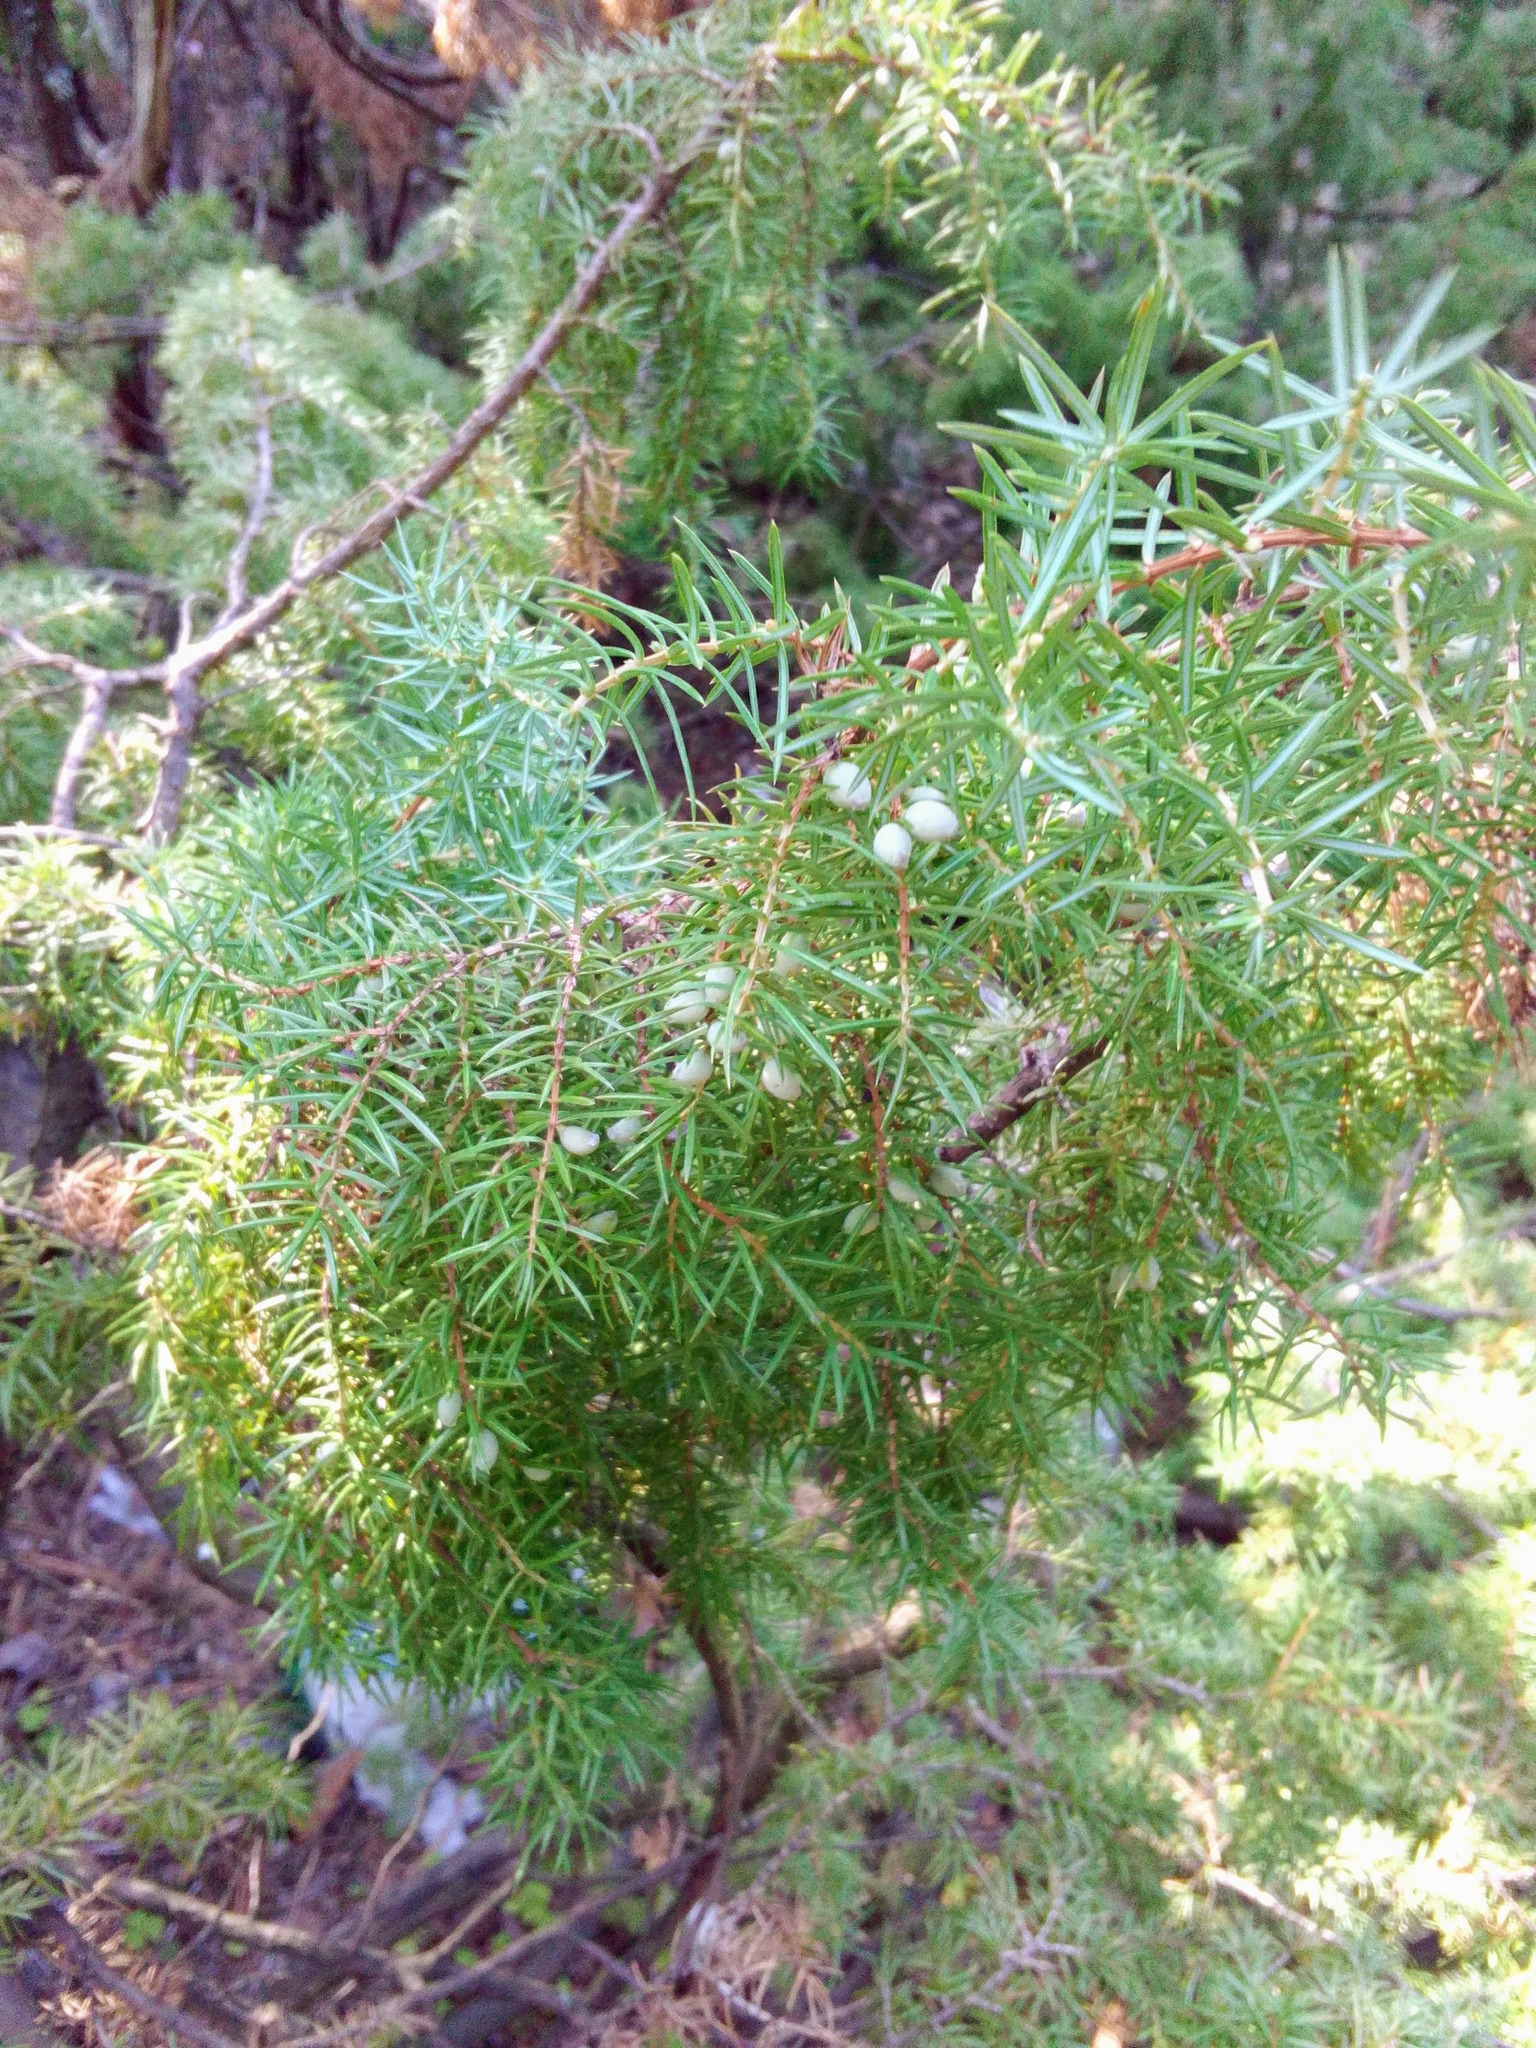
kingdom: Plantae
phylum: Tracheophyta
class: Pinopsida
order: Pinales
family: Cupressaceae
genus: Juniperus
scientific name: Juniperus communis
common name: Common juniper
